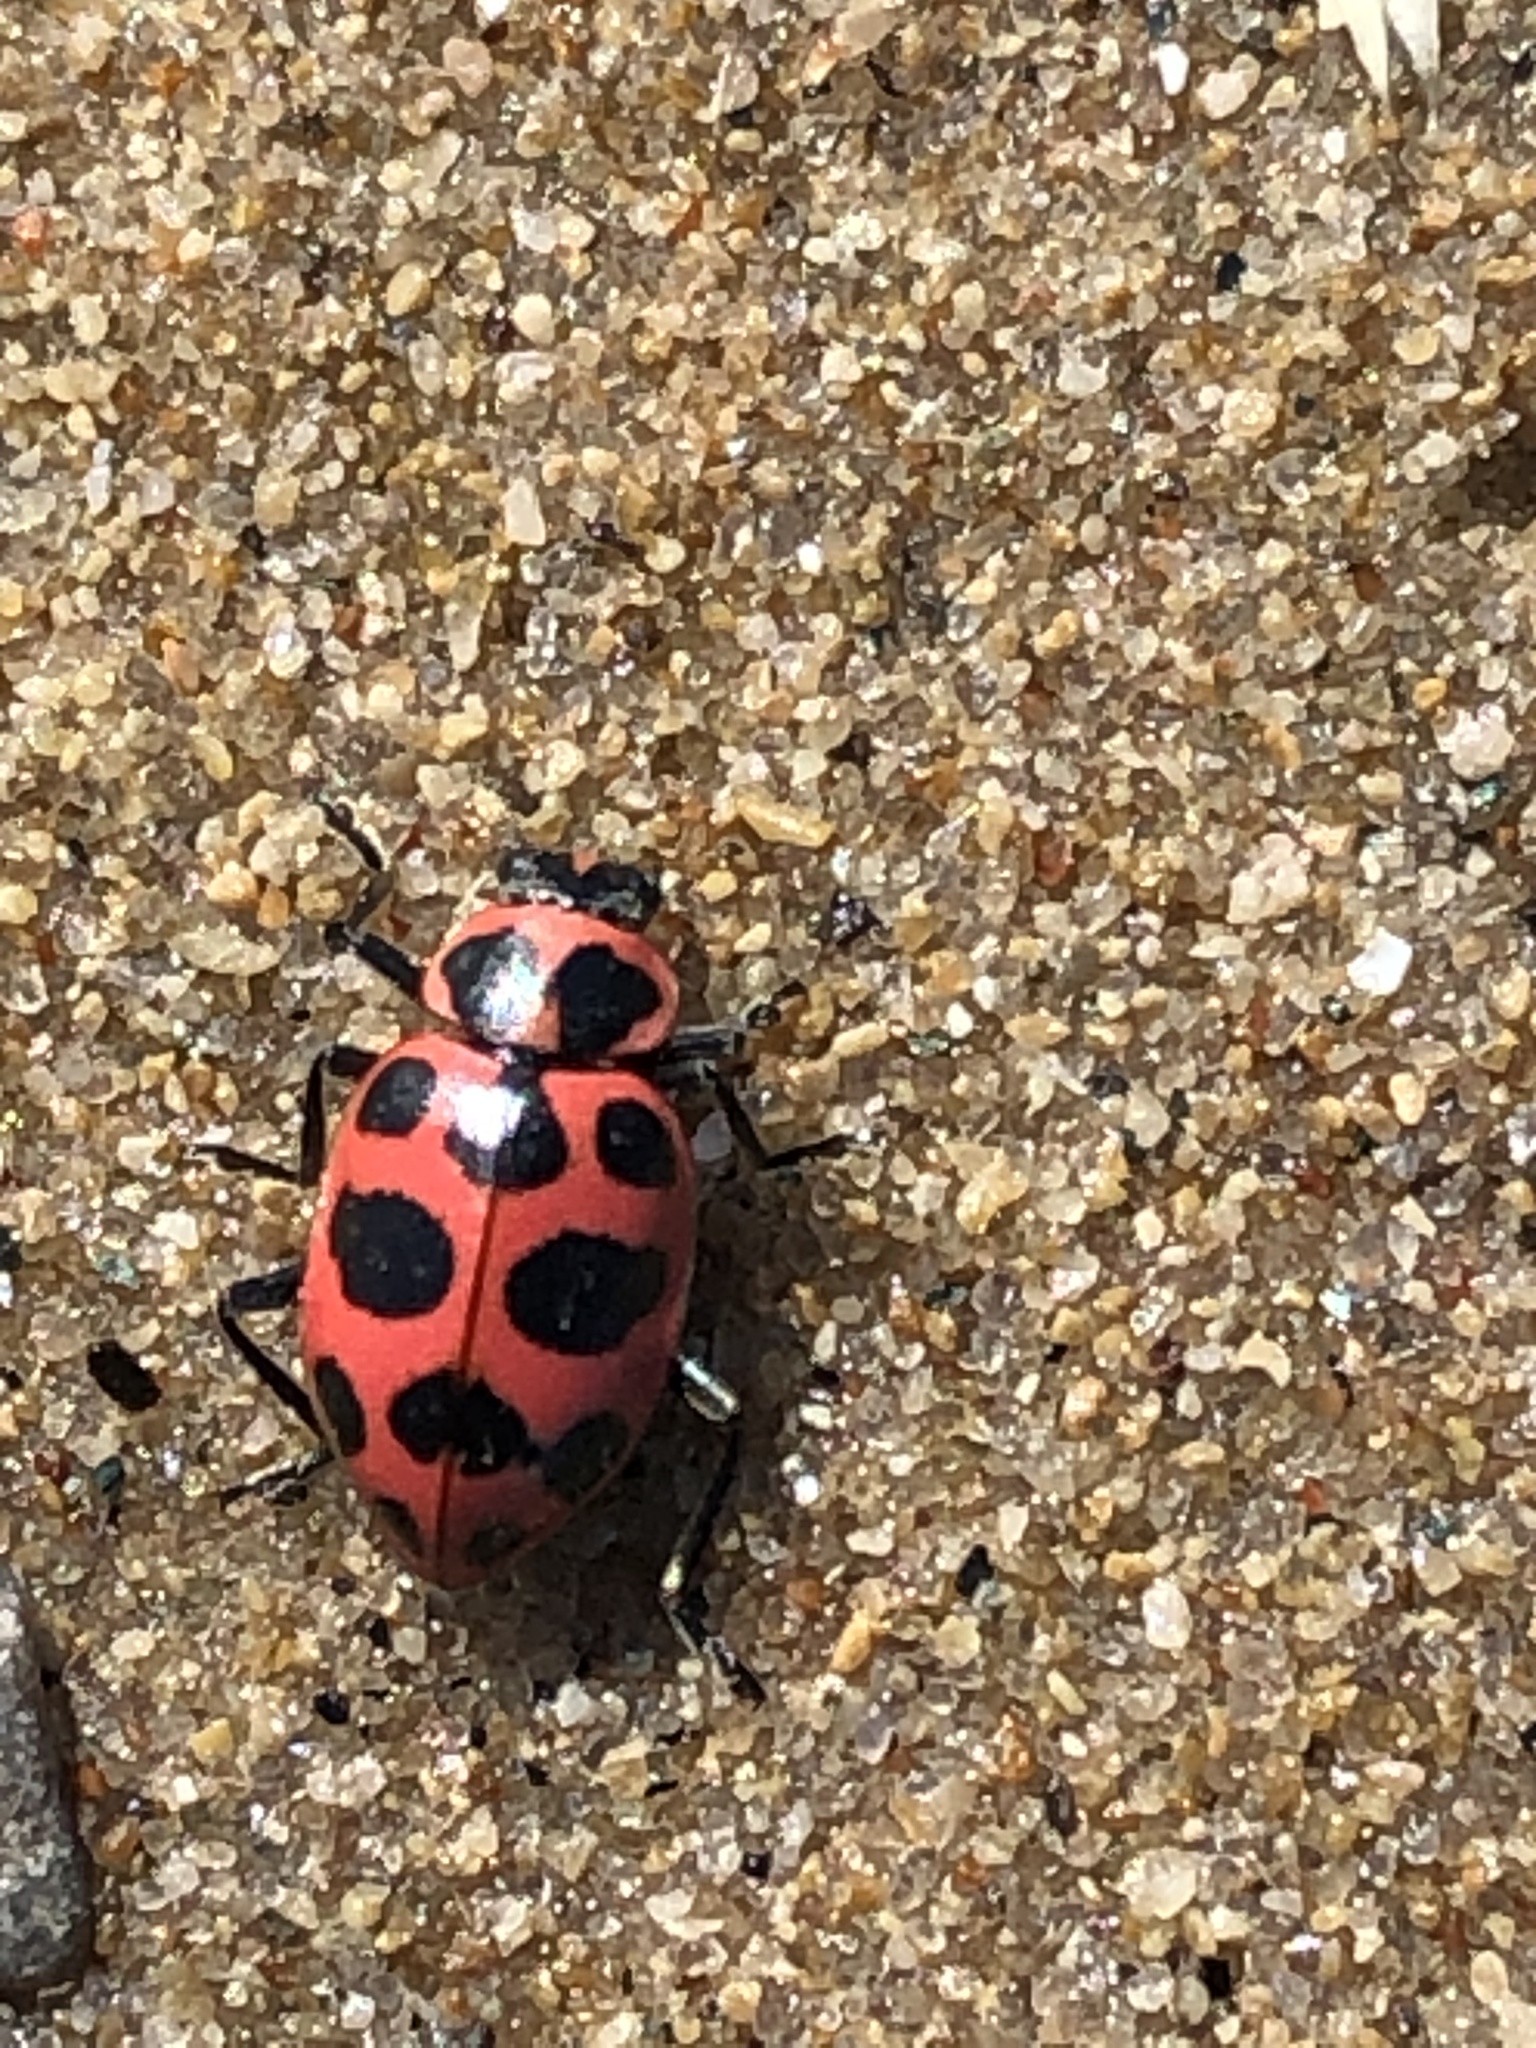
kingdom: Animalia
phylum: Arthropoda
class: Insecta
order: Coleoptera
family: Coccinellidae
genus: Coleomegilla
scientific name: Coleomegilla maculata
